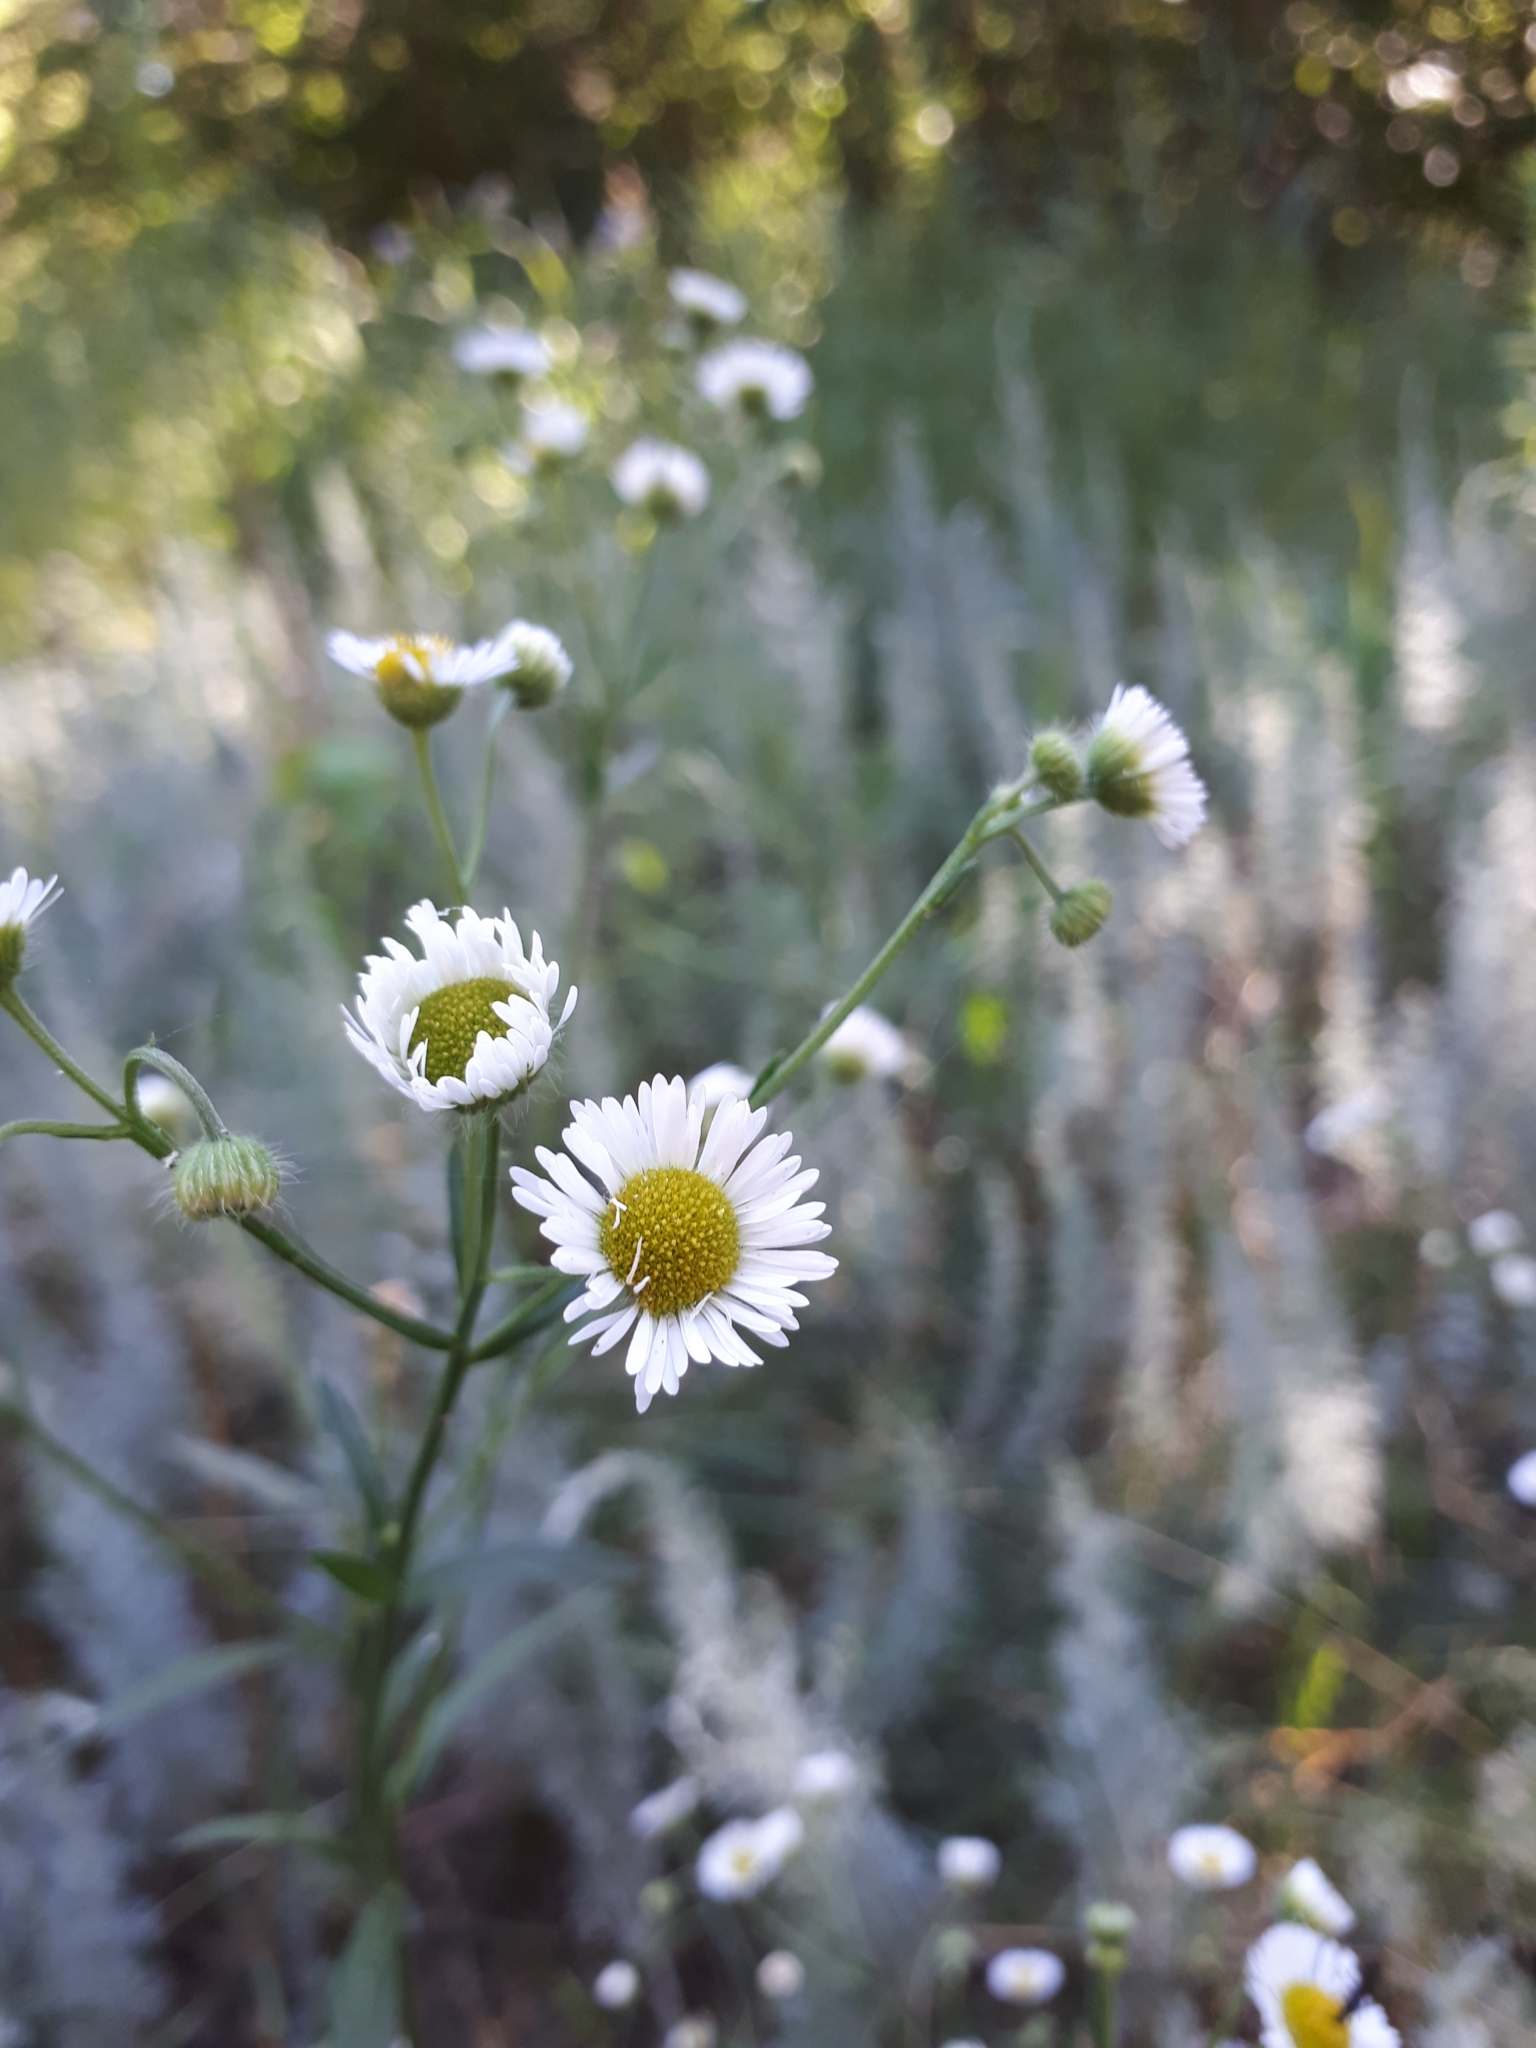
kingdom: Plantae
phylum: Tracheophyta
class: Magnoliopsida
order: Asterales
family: Asteraceae
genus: Erigeron
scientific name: Erigeron strigosus
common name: Common eastern fleabane
